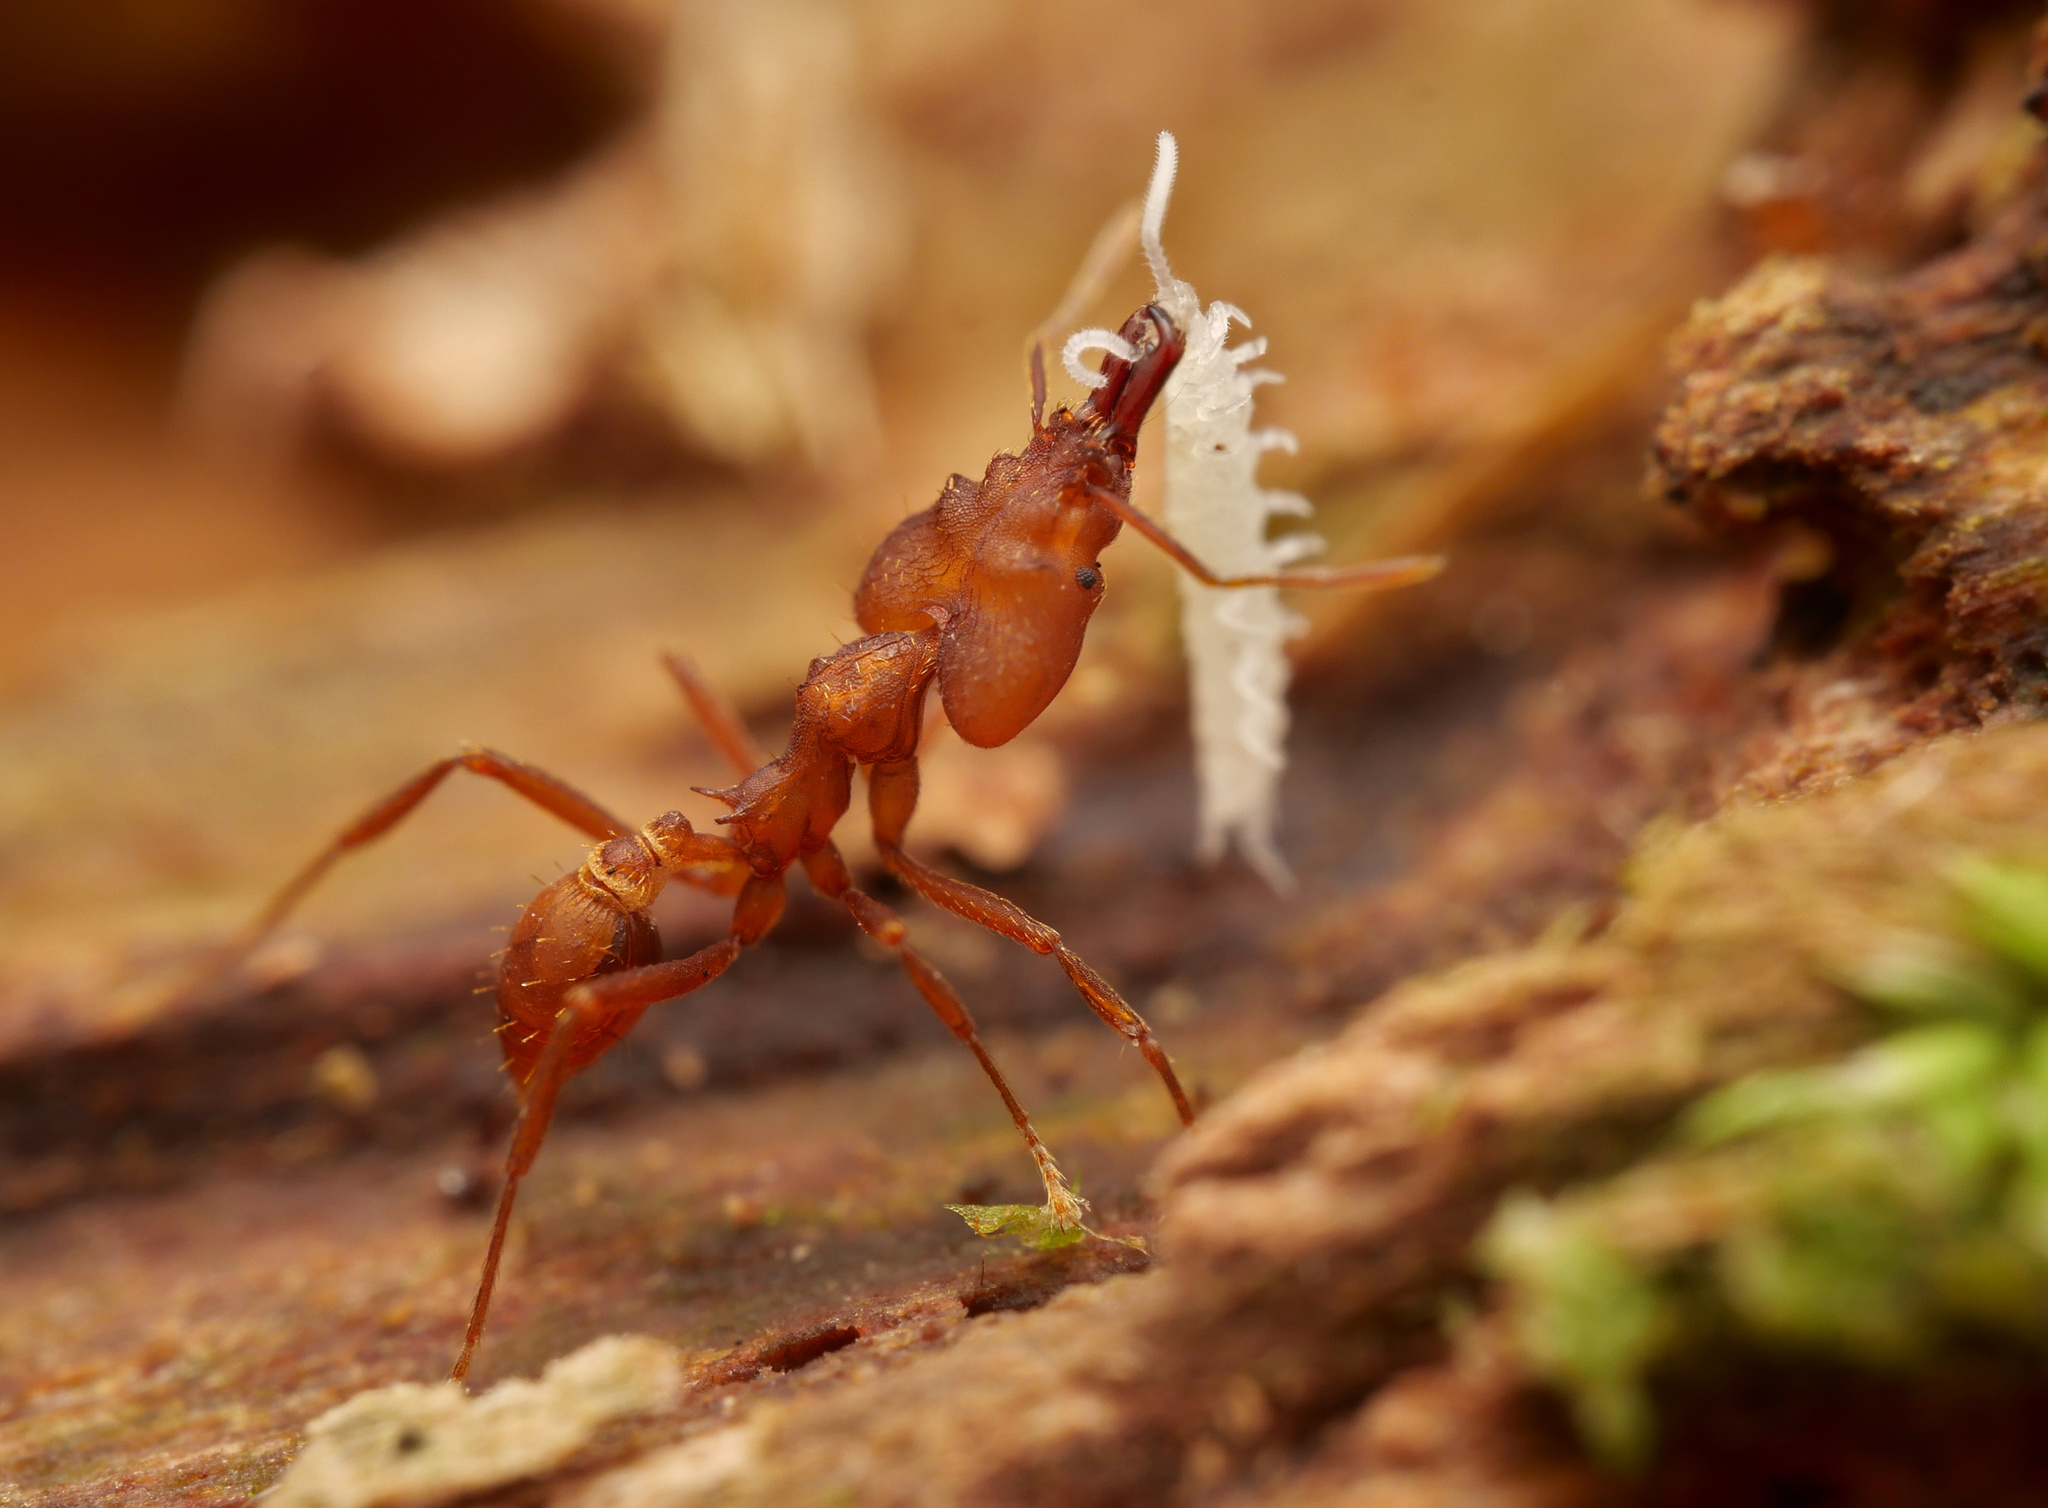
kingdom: Animalia
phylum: Arthropoda
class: Insecta
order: Hymenoptera
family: Formicidae
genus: Strumigenys
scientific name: Strumigenys loriae
